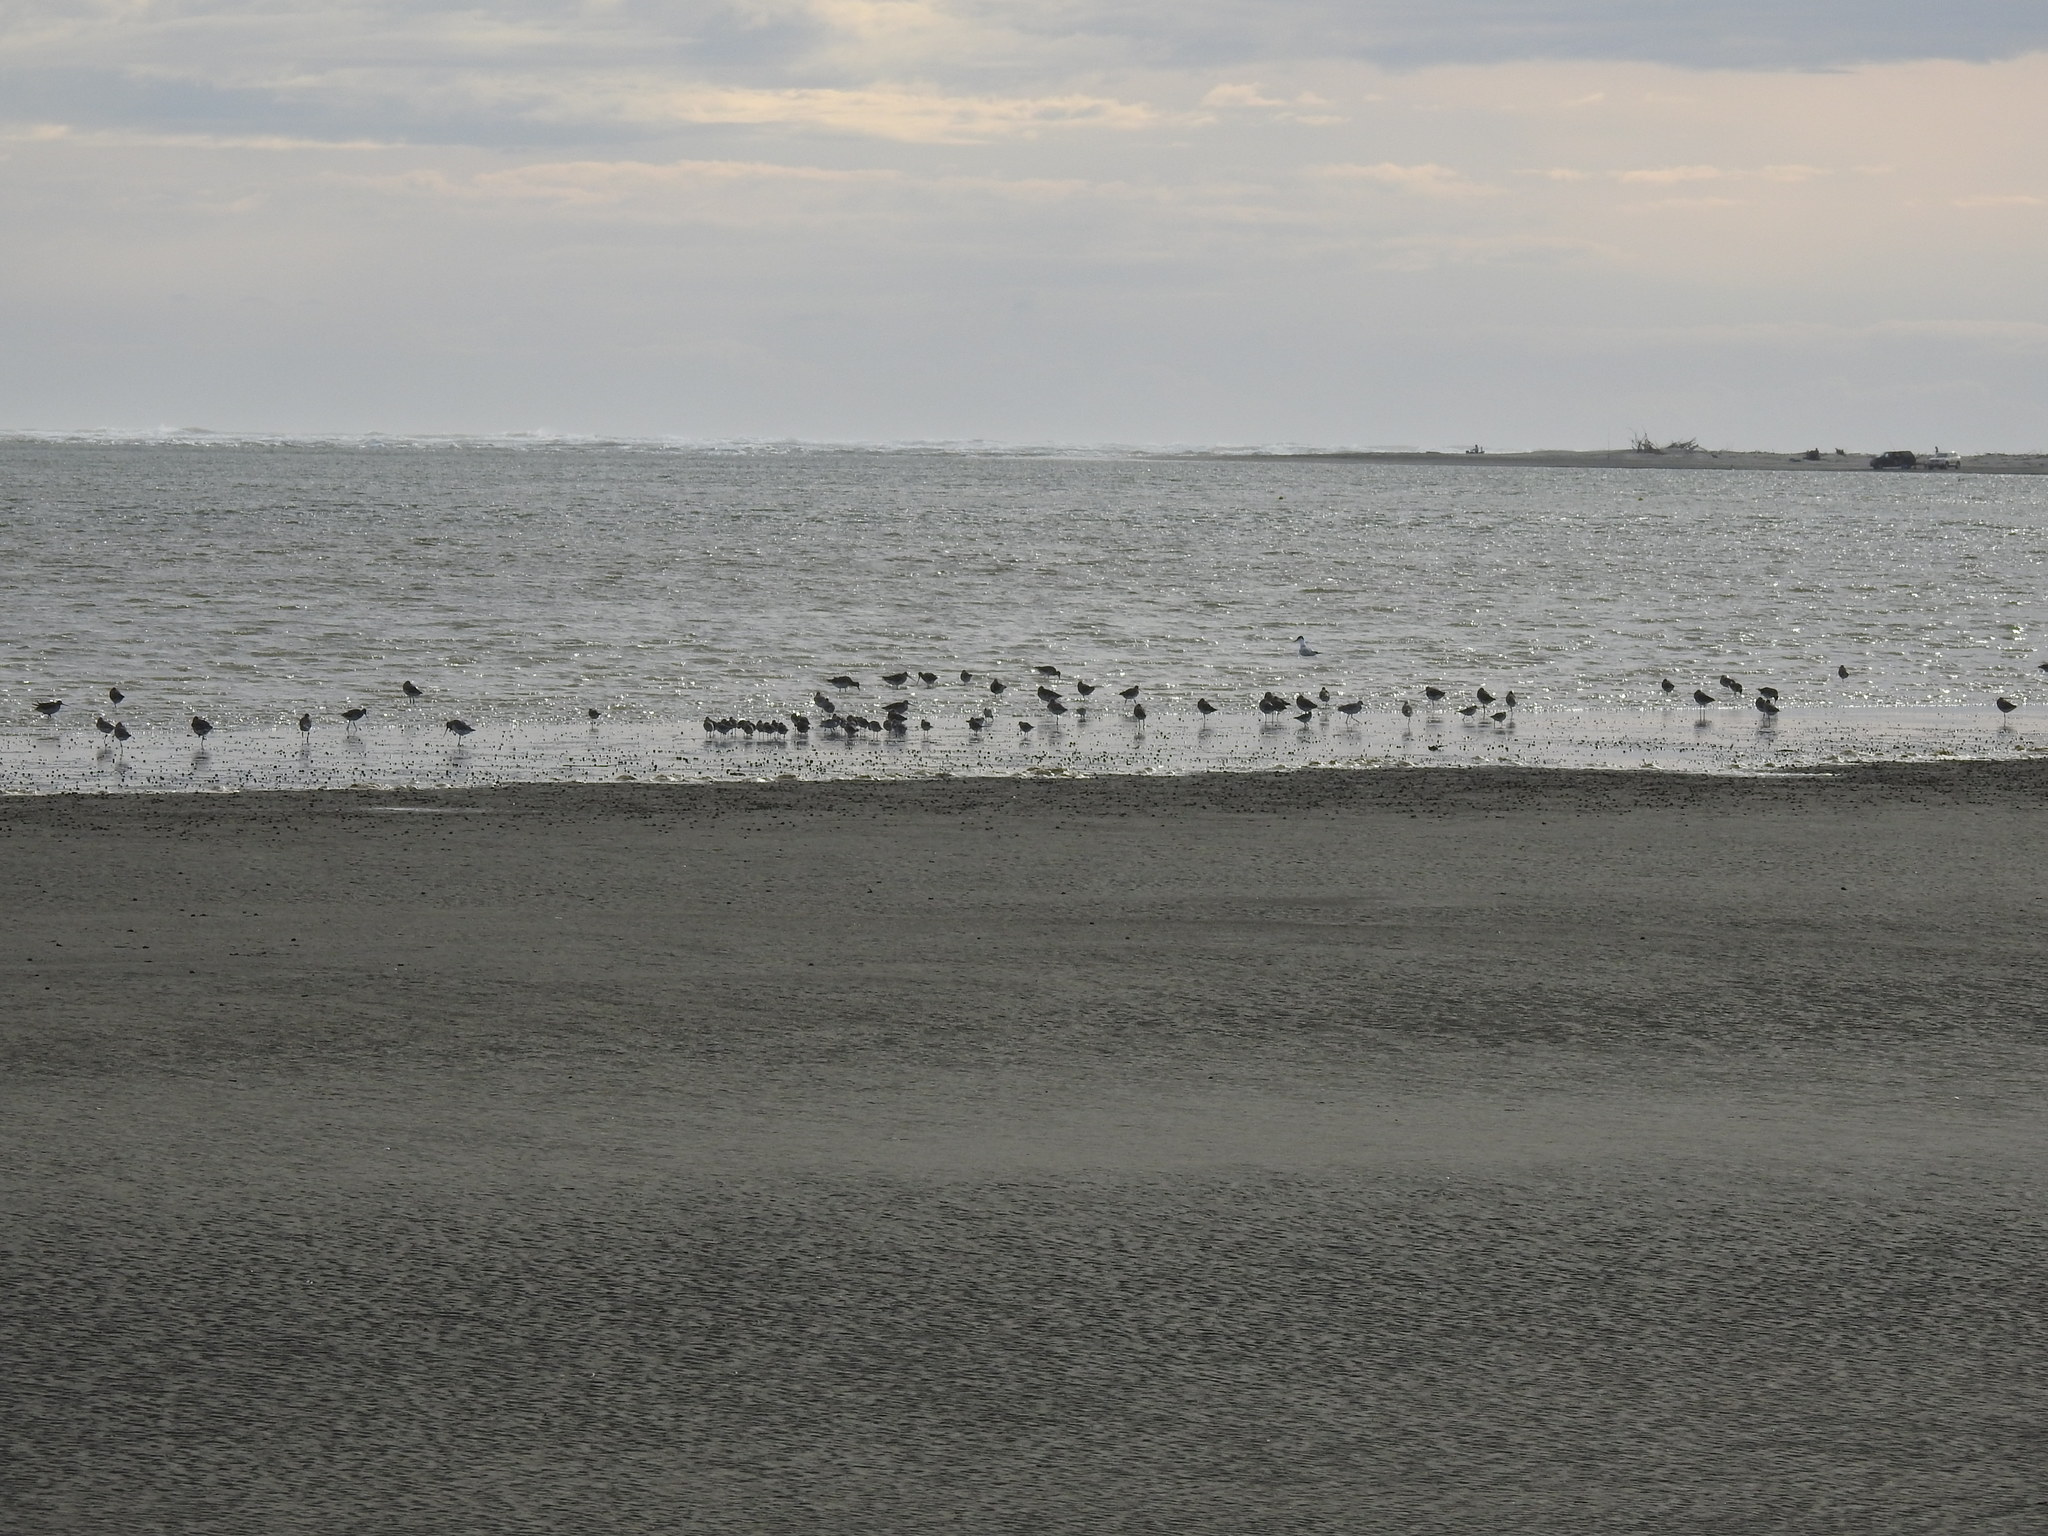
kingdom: Animalia
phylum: Chordata
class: Aves
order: Charadriiformes
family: Scolopacidae
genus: Limosa
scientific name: Limosa lapponica
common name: Bar-tailed godwit
